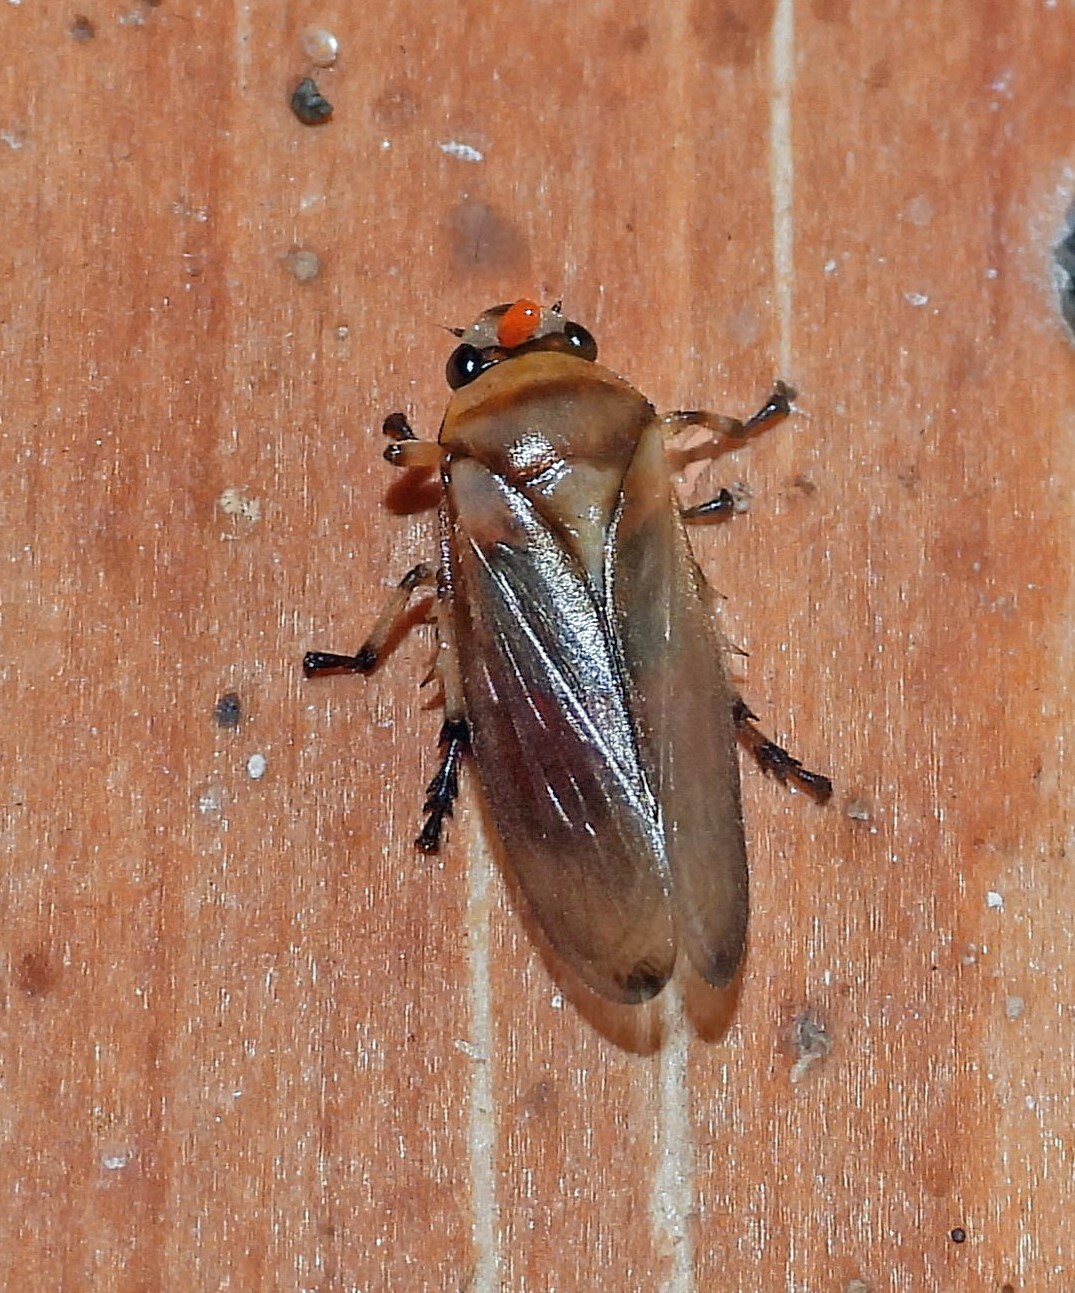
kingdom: Animalia
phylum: Arthropoda
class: Insecta
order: Hemiptera
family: Cercopidae
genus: Monecphora
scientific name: Monecphora nigritarsis
